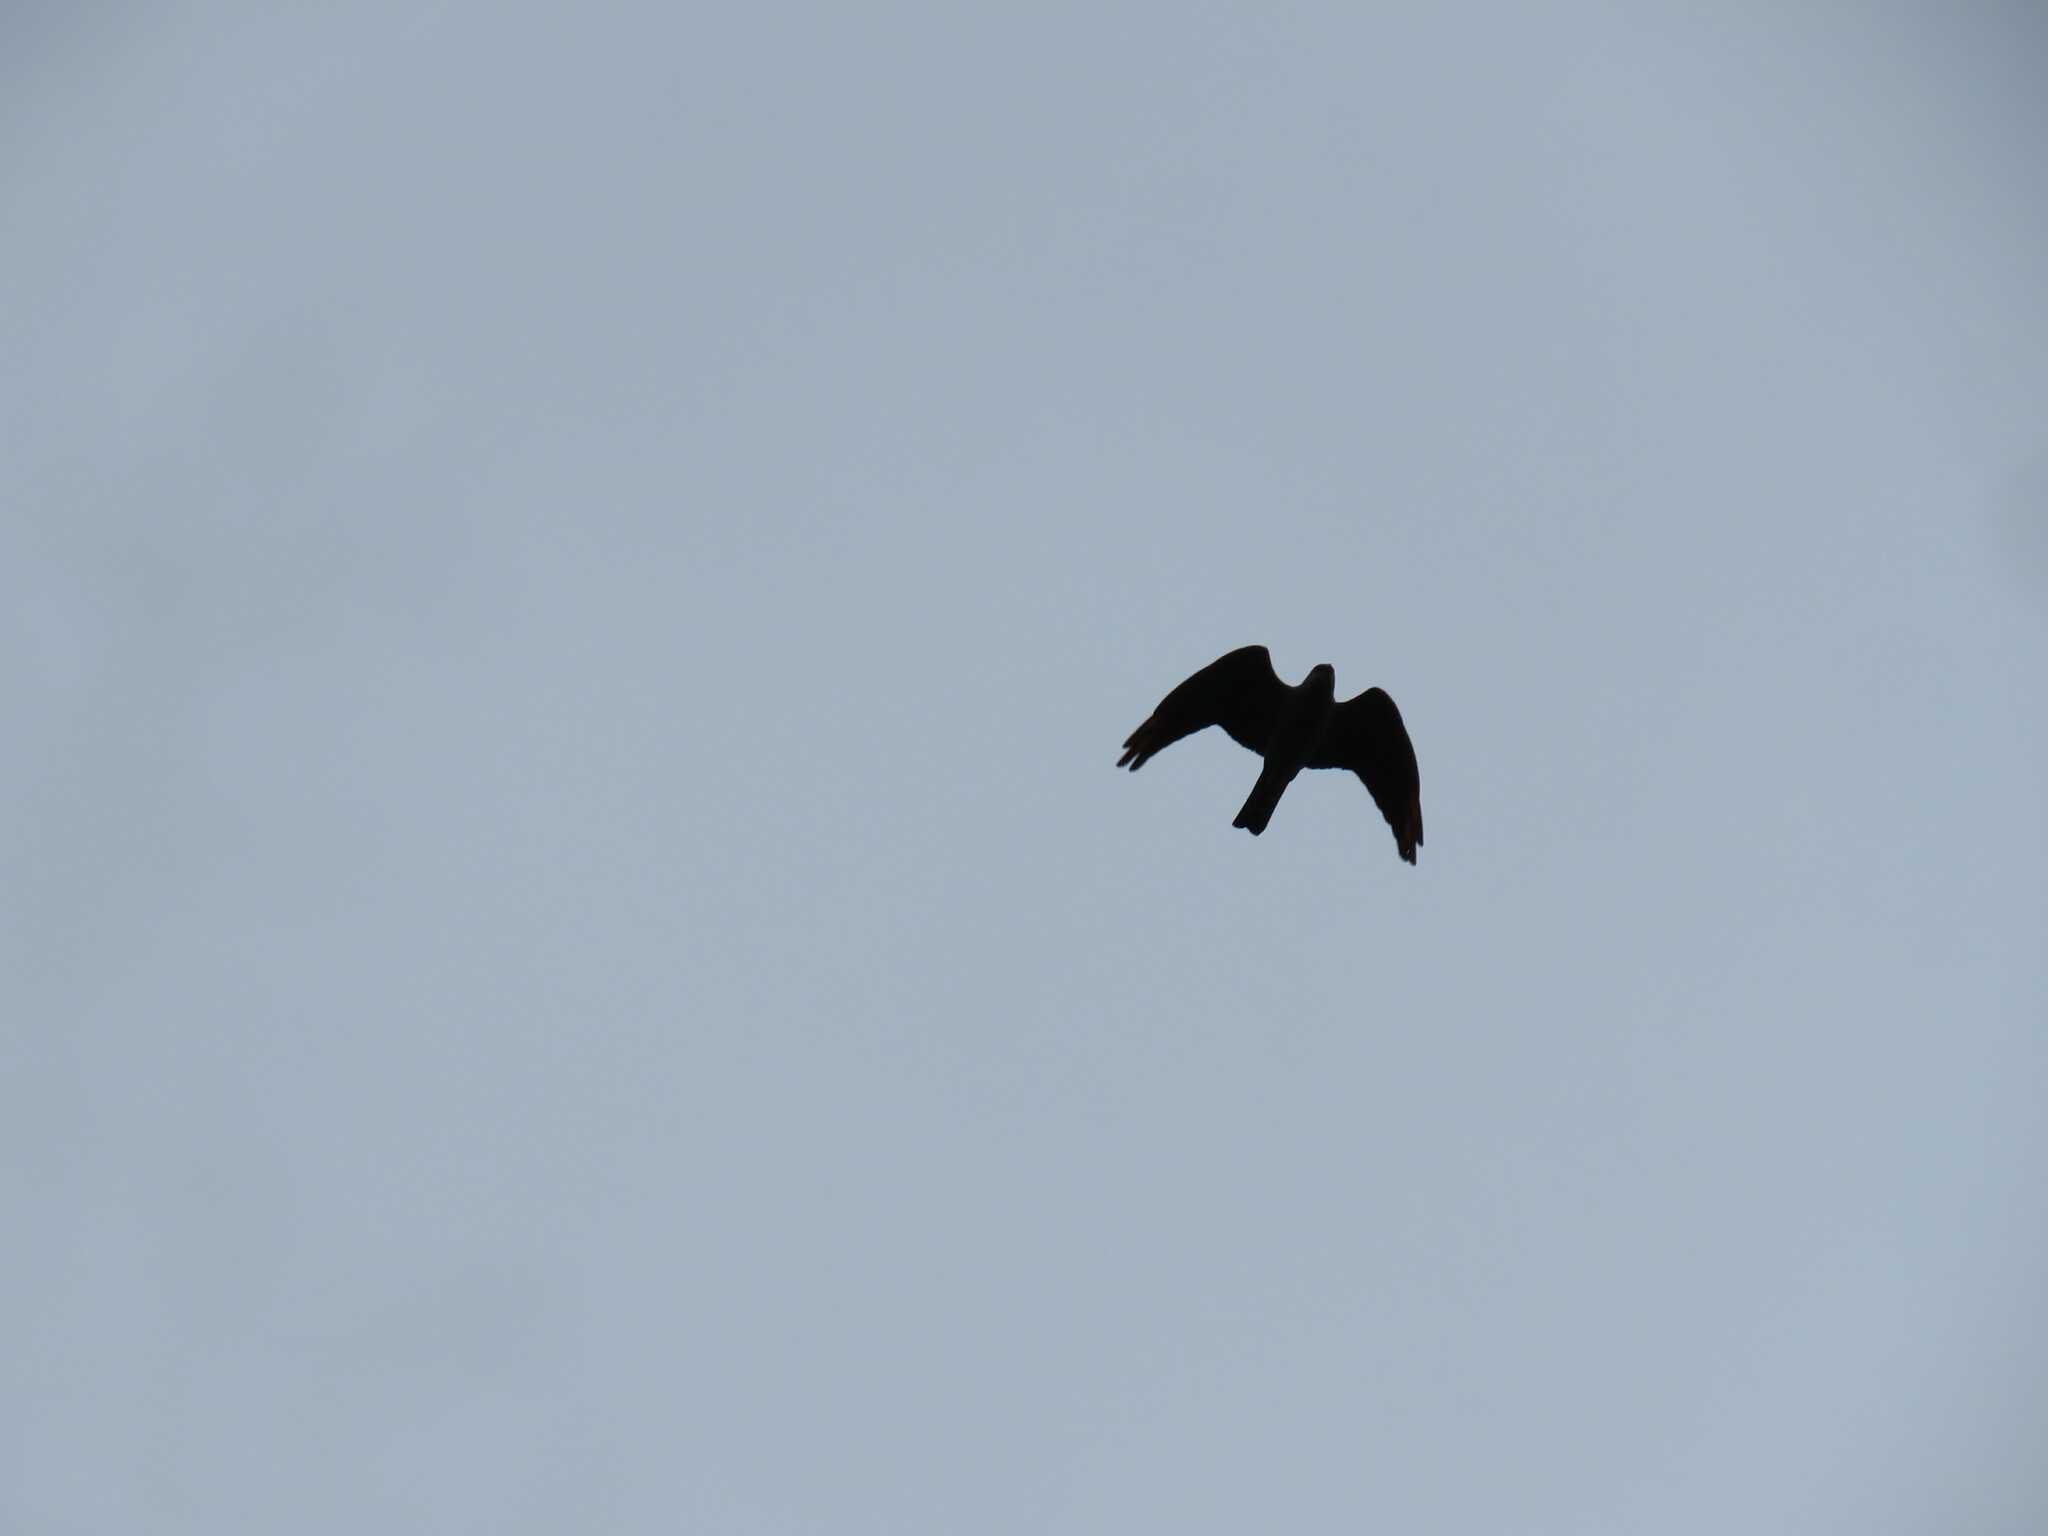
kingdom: Animalia
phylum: Chordata
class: Aves
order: Accipitriformes
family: Accipitridae
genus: Ictinia
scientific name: Ictinia plumbea
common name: Plumbeous kite
